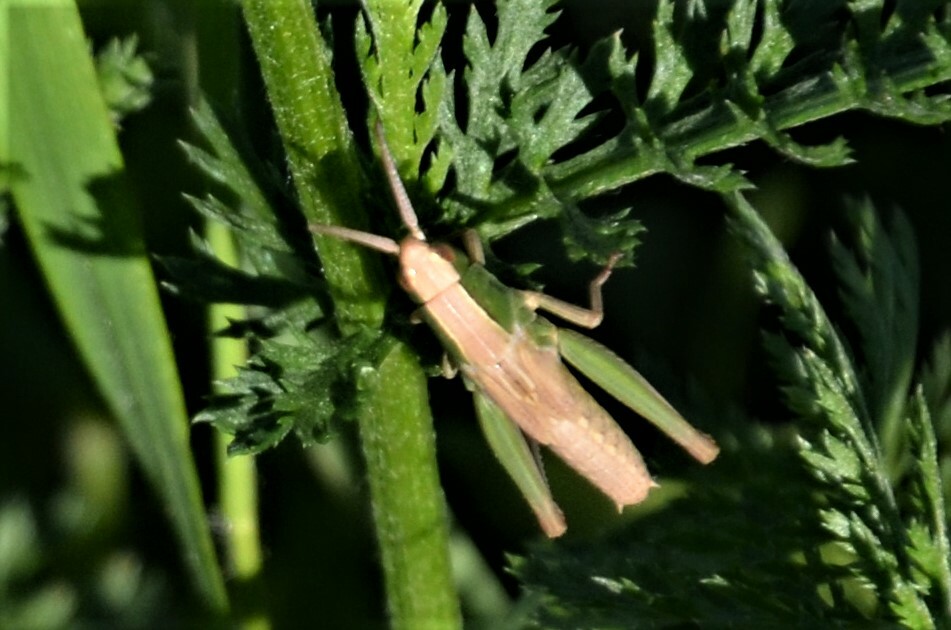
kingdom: Animalia
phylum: Arthropoda
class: Insecta
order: Orthoptera
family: Acrididae
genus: Chorthippus
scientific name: Chorthippus albomarginatus
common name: Lesser marsh grasshopper
